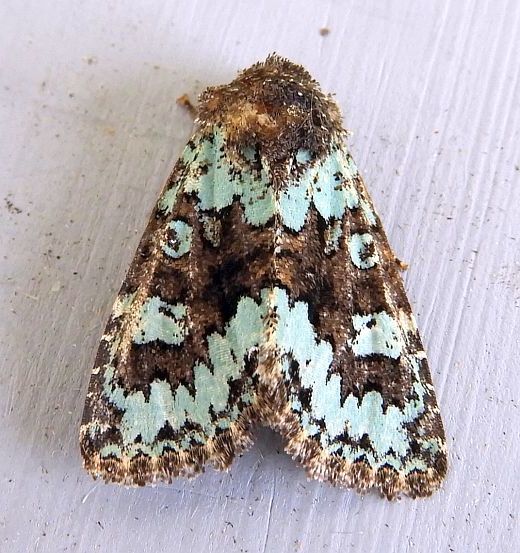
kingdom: Animalia
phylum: Arthropoda
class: Insecta
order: Lepidoptera
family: Noctuidae
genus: Paramiana
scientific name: Paramiana perissa
